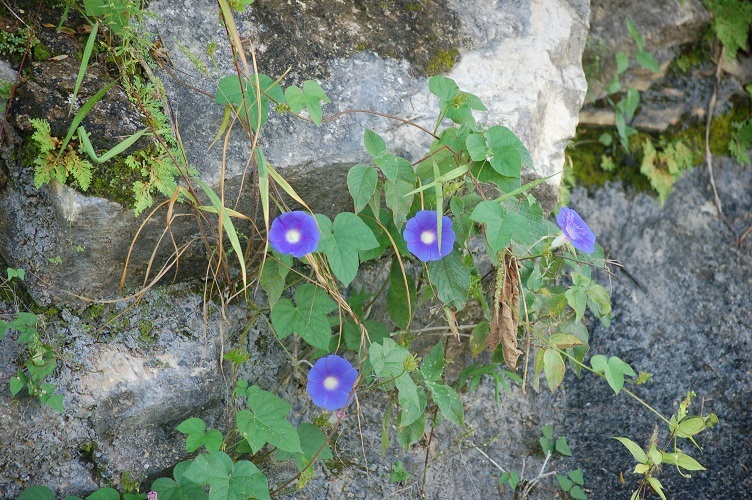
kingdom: Plantae
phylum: Tracheophyta
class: Magnoliopsida
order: Solanales
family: Convolvulaceae
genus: Ipomoea
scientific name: Ipomoea hederacea
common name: Ivy-leaved morning-glory
